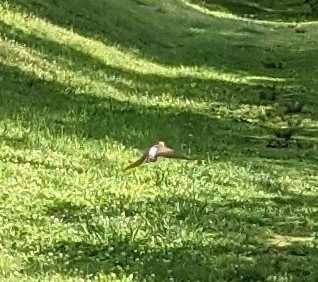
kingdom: Animalia
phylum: Chordata
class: Aves
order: Piciformes
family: Picidae
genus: Colaptes
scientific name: Colaptes auratus
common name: Northern flicker
